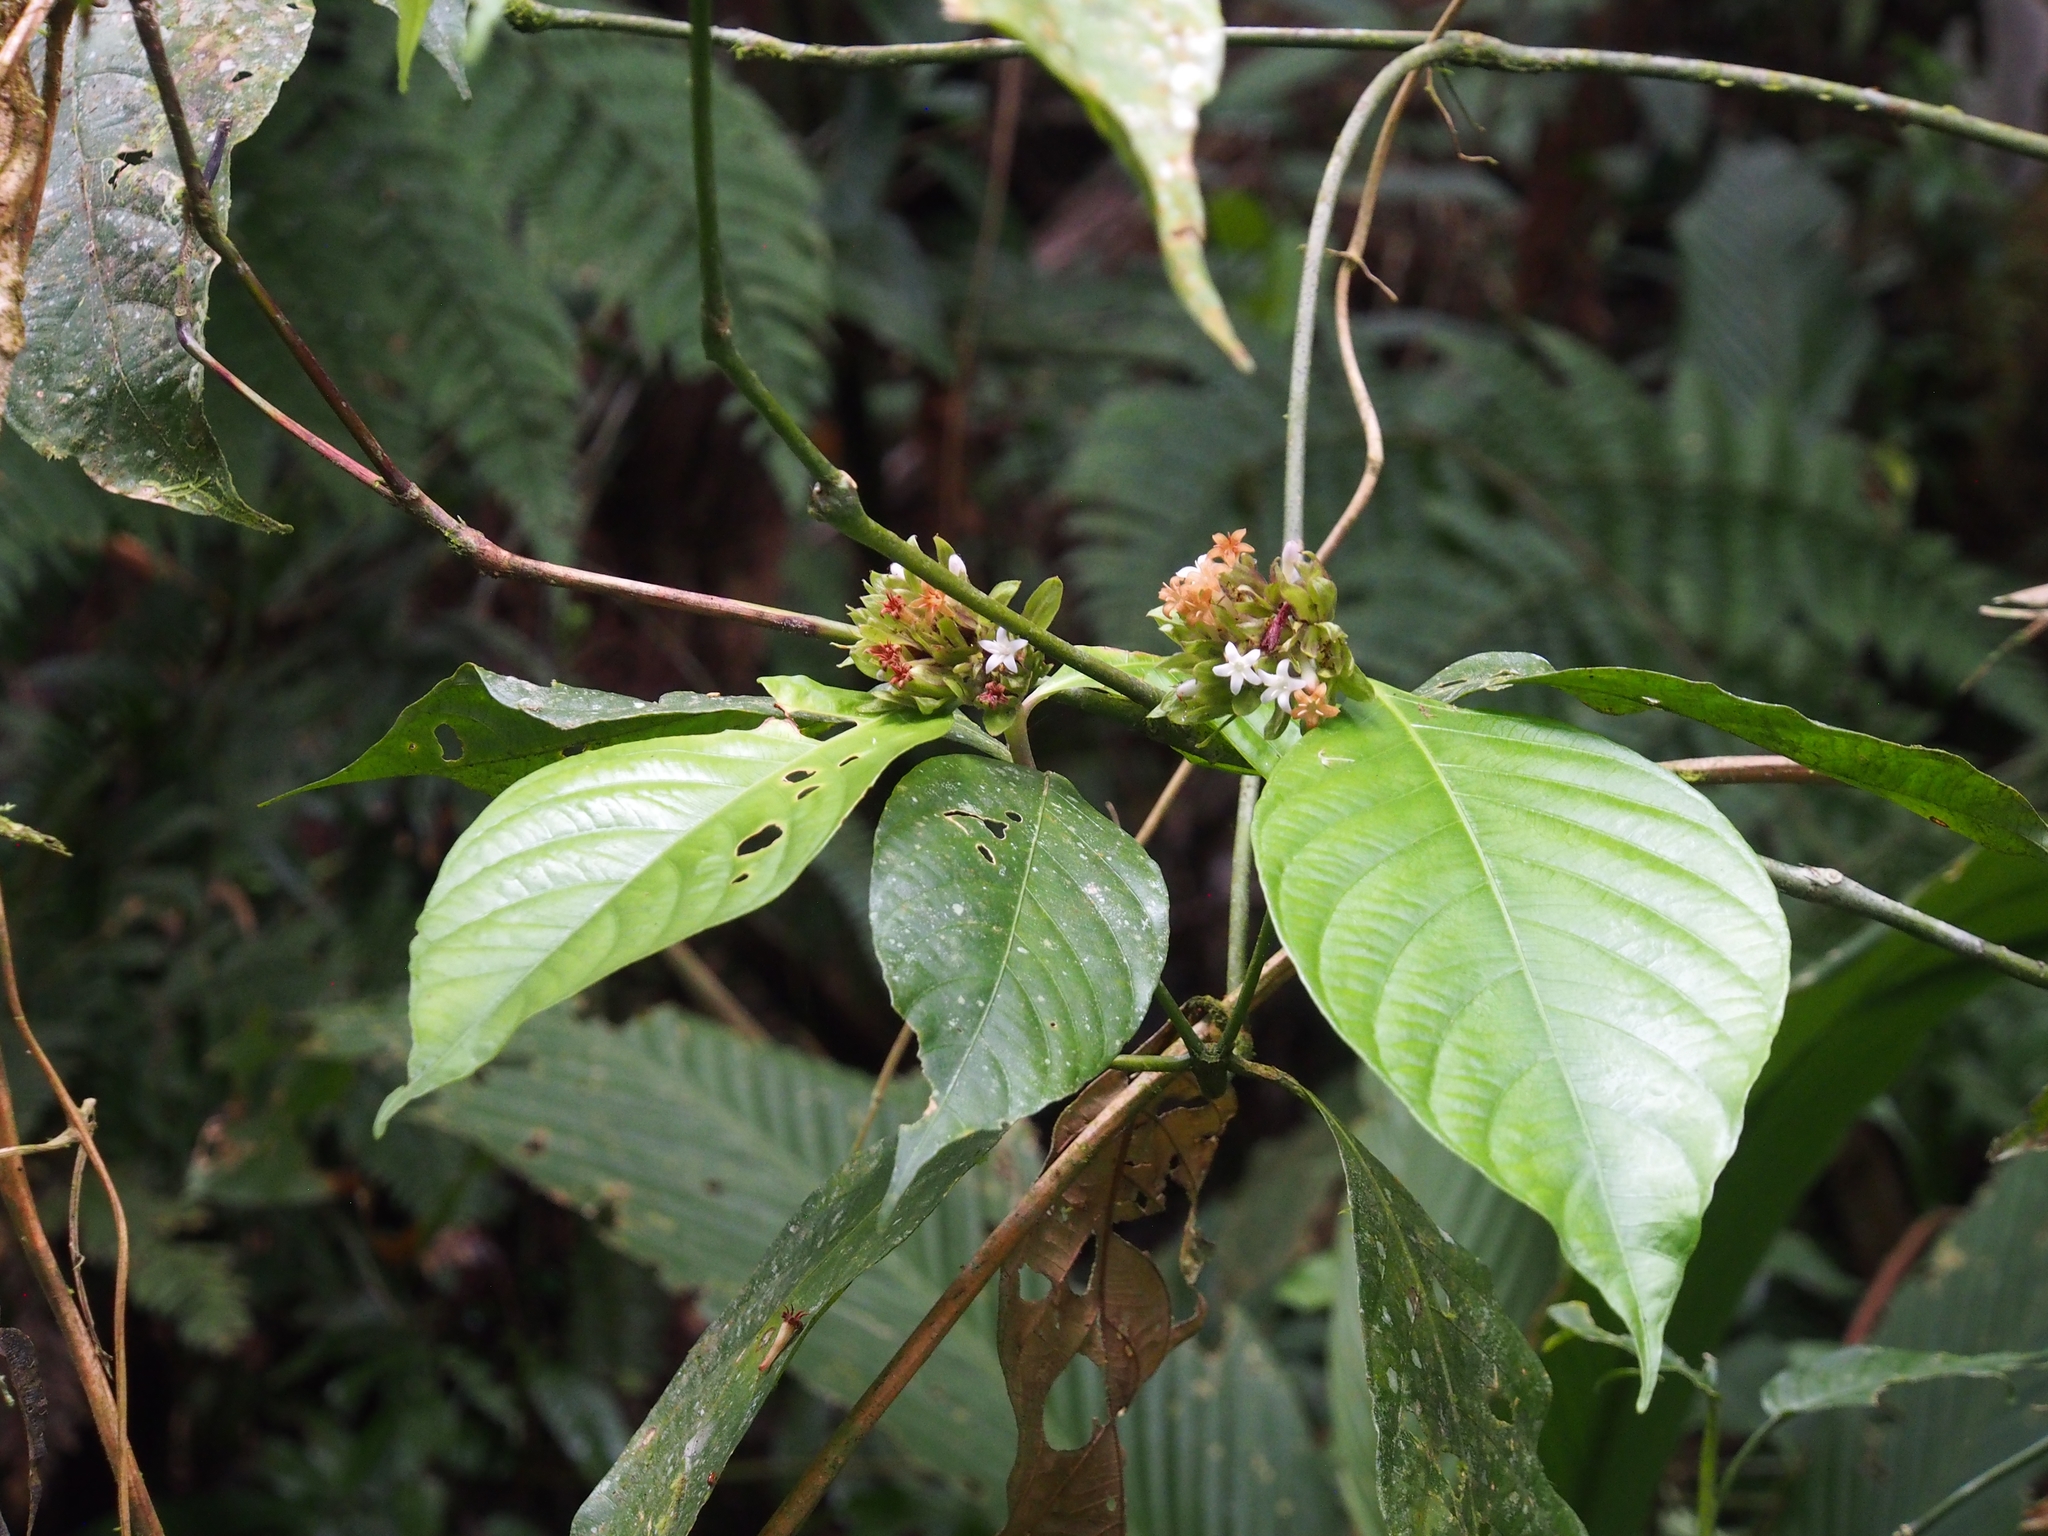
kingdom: Plantae
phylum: Tracheophyta
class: Magnoliopsida
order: Gentianales
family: Rubiaceae
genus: Palicourea
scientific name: Palicourea suerrensis
